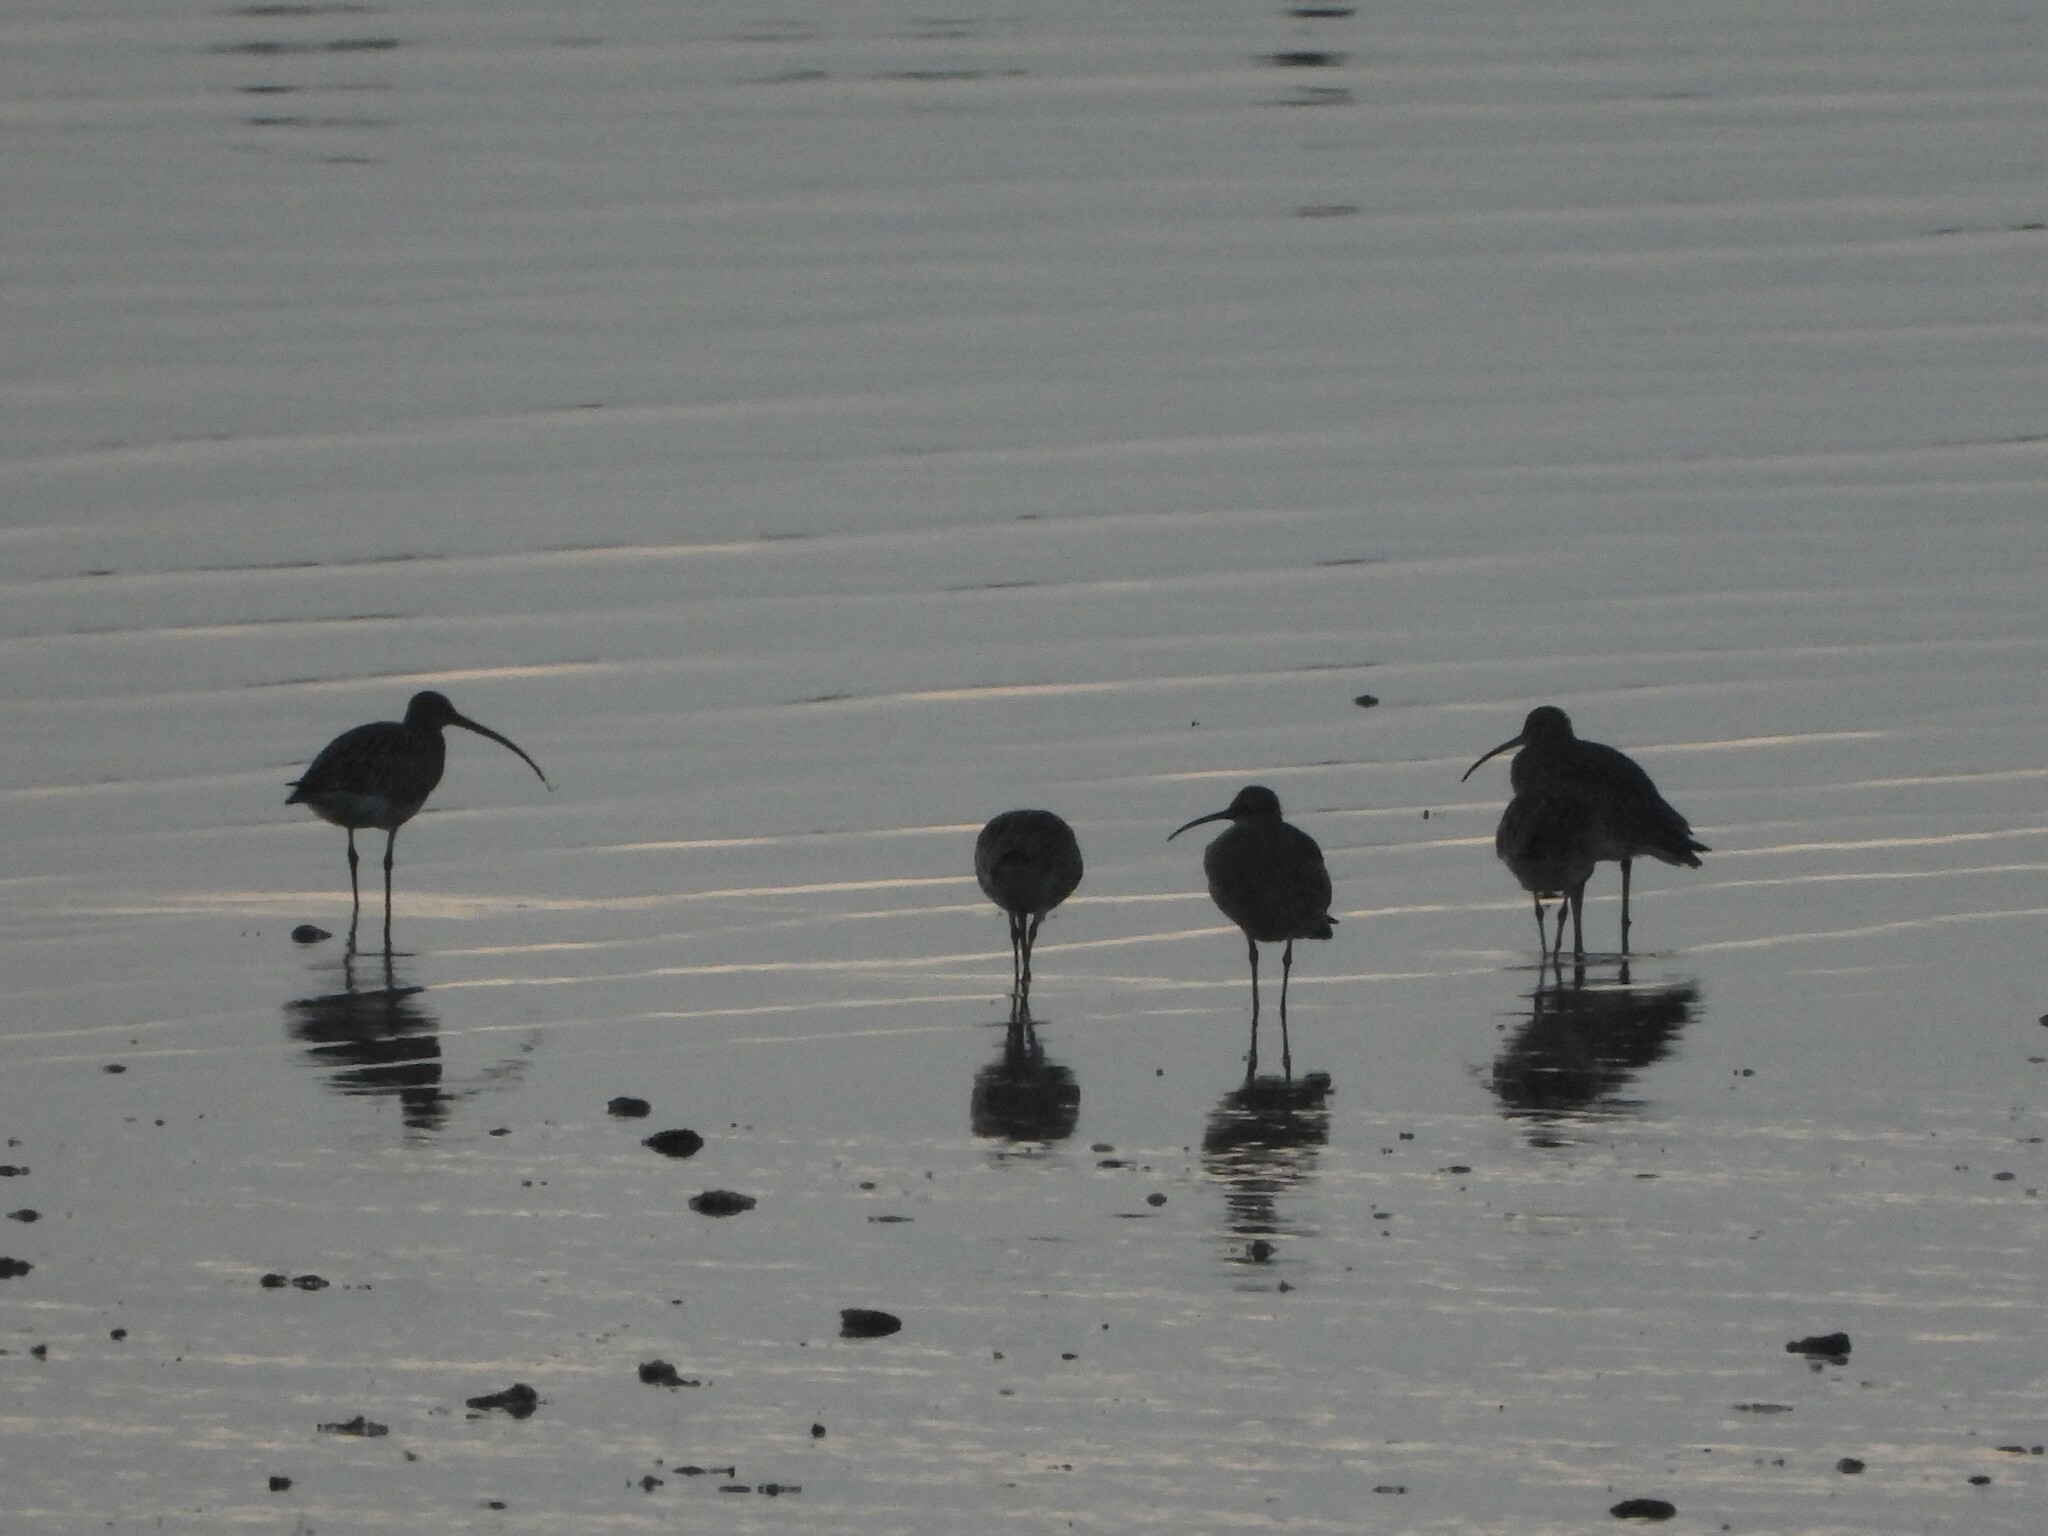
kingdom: Animalia
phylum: Chordata
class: Aves
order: Charadriiformes
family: Scolopacidae
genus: Numenius
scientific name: Numenius arquata
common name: Eurasian curlew
